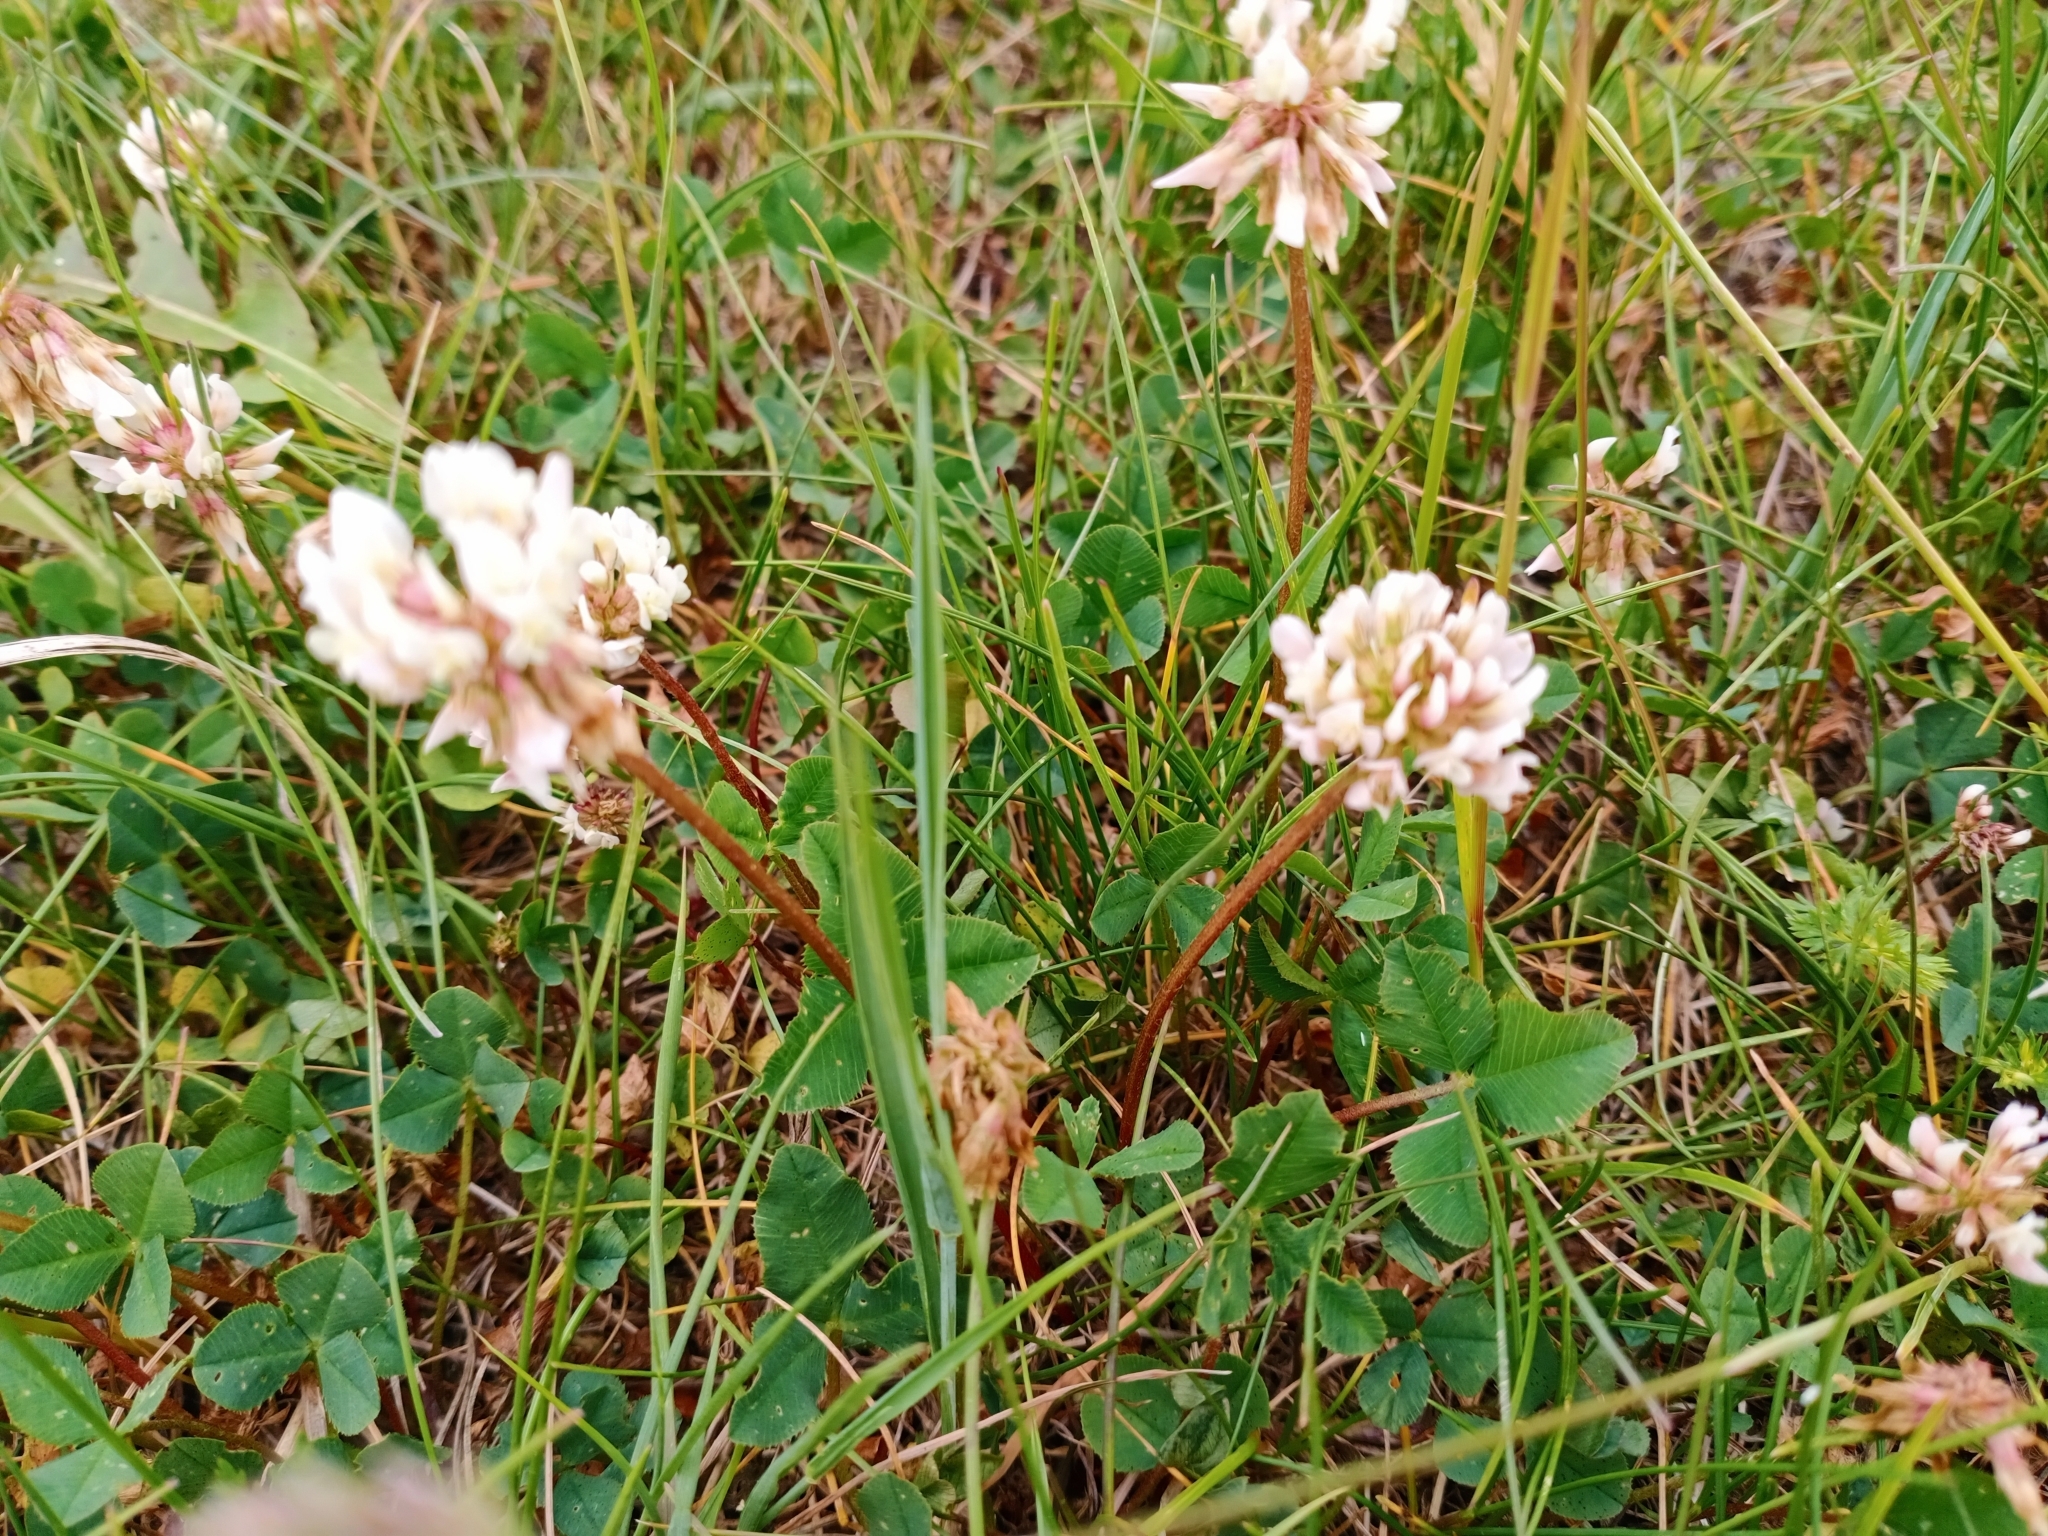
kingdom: Plantae
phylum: Tracheophyta
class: Magnoliopsida
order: Fabales
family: Fabaceae
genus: Trifolium
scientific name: Trifolium repens
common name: White clover
